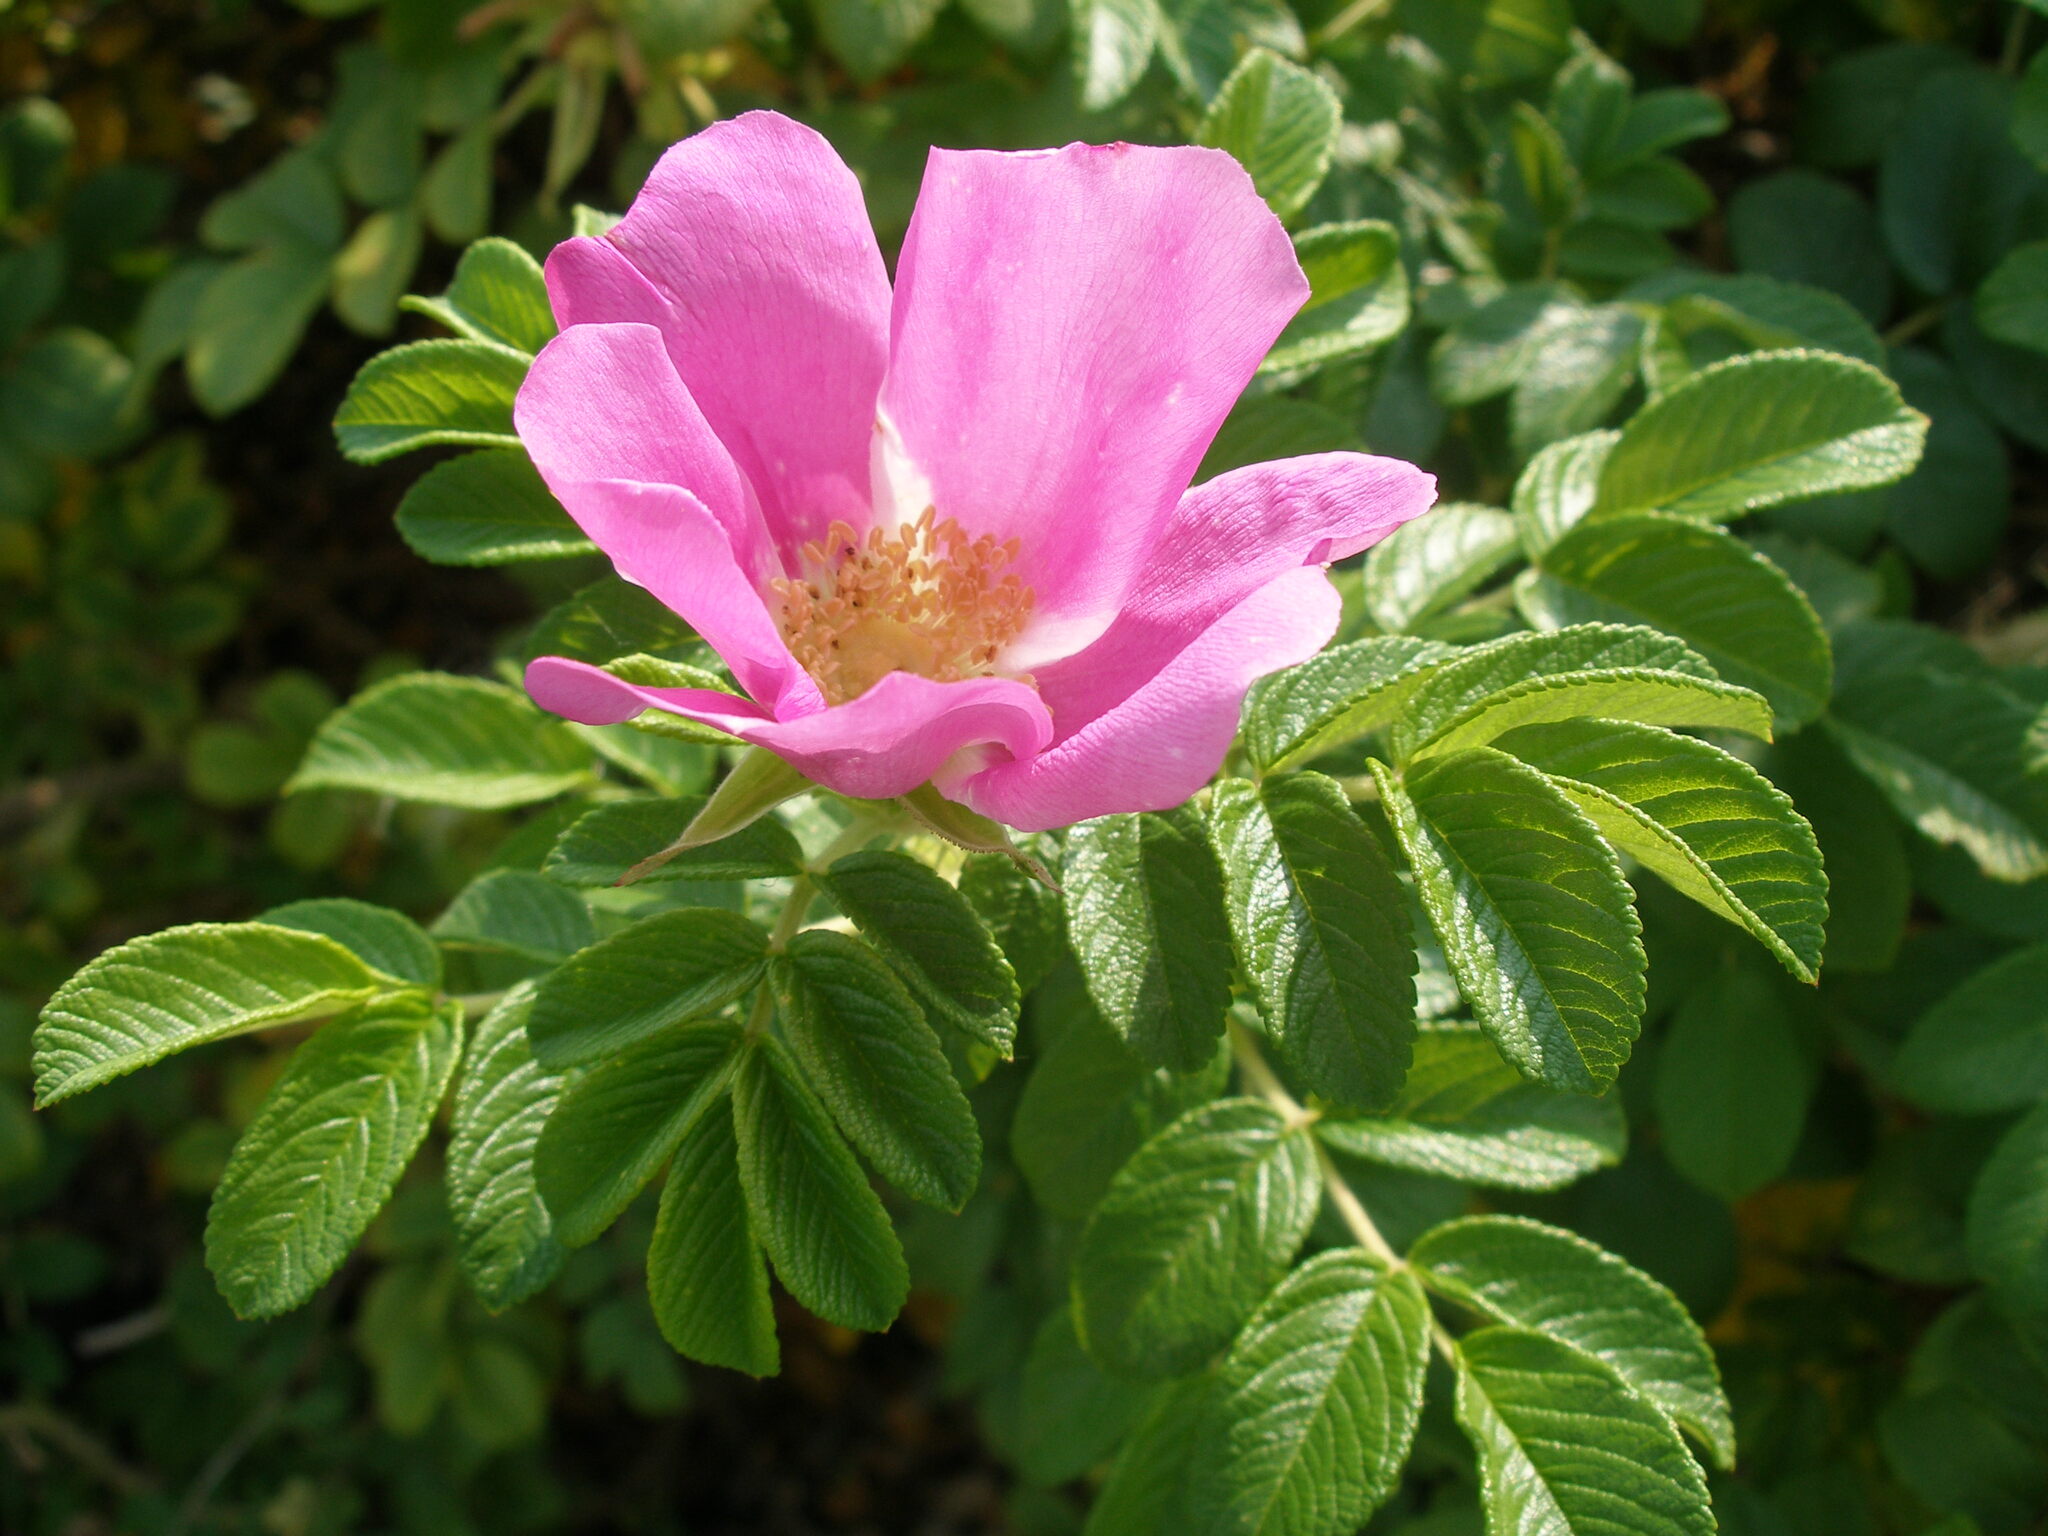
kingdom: Plantae
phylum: Tracheophyta
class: Magnoliopsida
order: Rosales
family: Rosaceae
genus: Rosa
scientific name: Rosa rugosa
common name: Japanese rose
